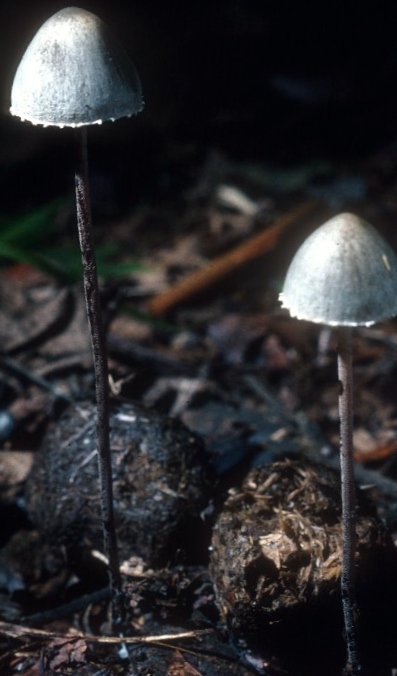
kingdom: Fungi
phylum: Basidiomycota
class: Agaricomycetes
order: Agaricales
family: Bolbitiaceae
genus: Panaeolus
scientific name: Panaeolus papilionaceus
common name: Petticoat mottlegill
